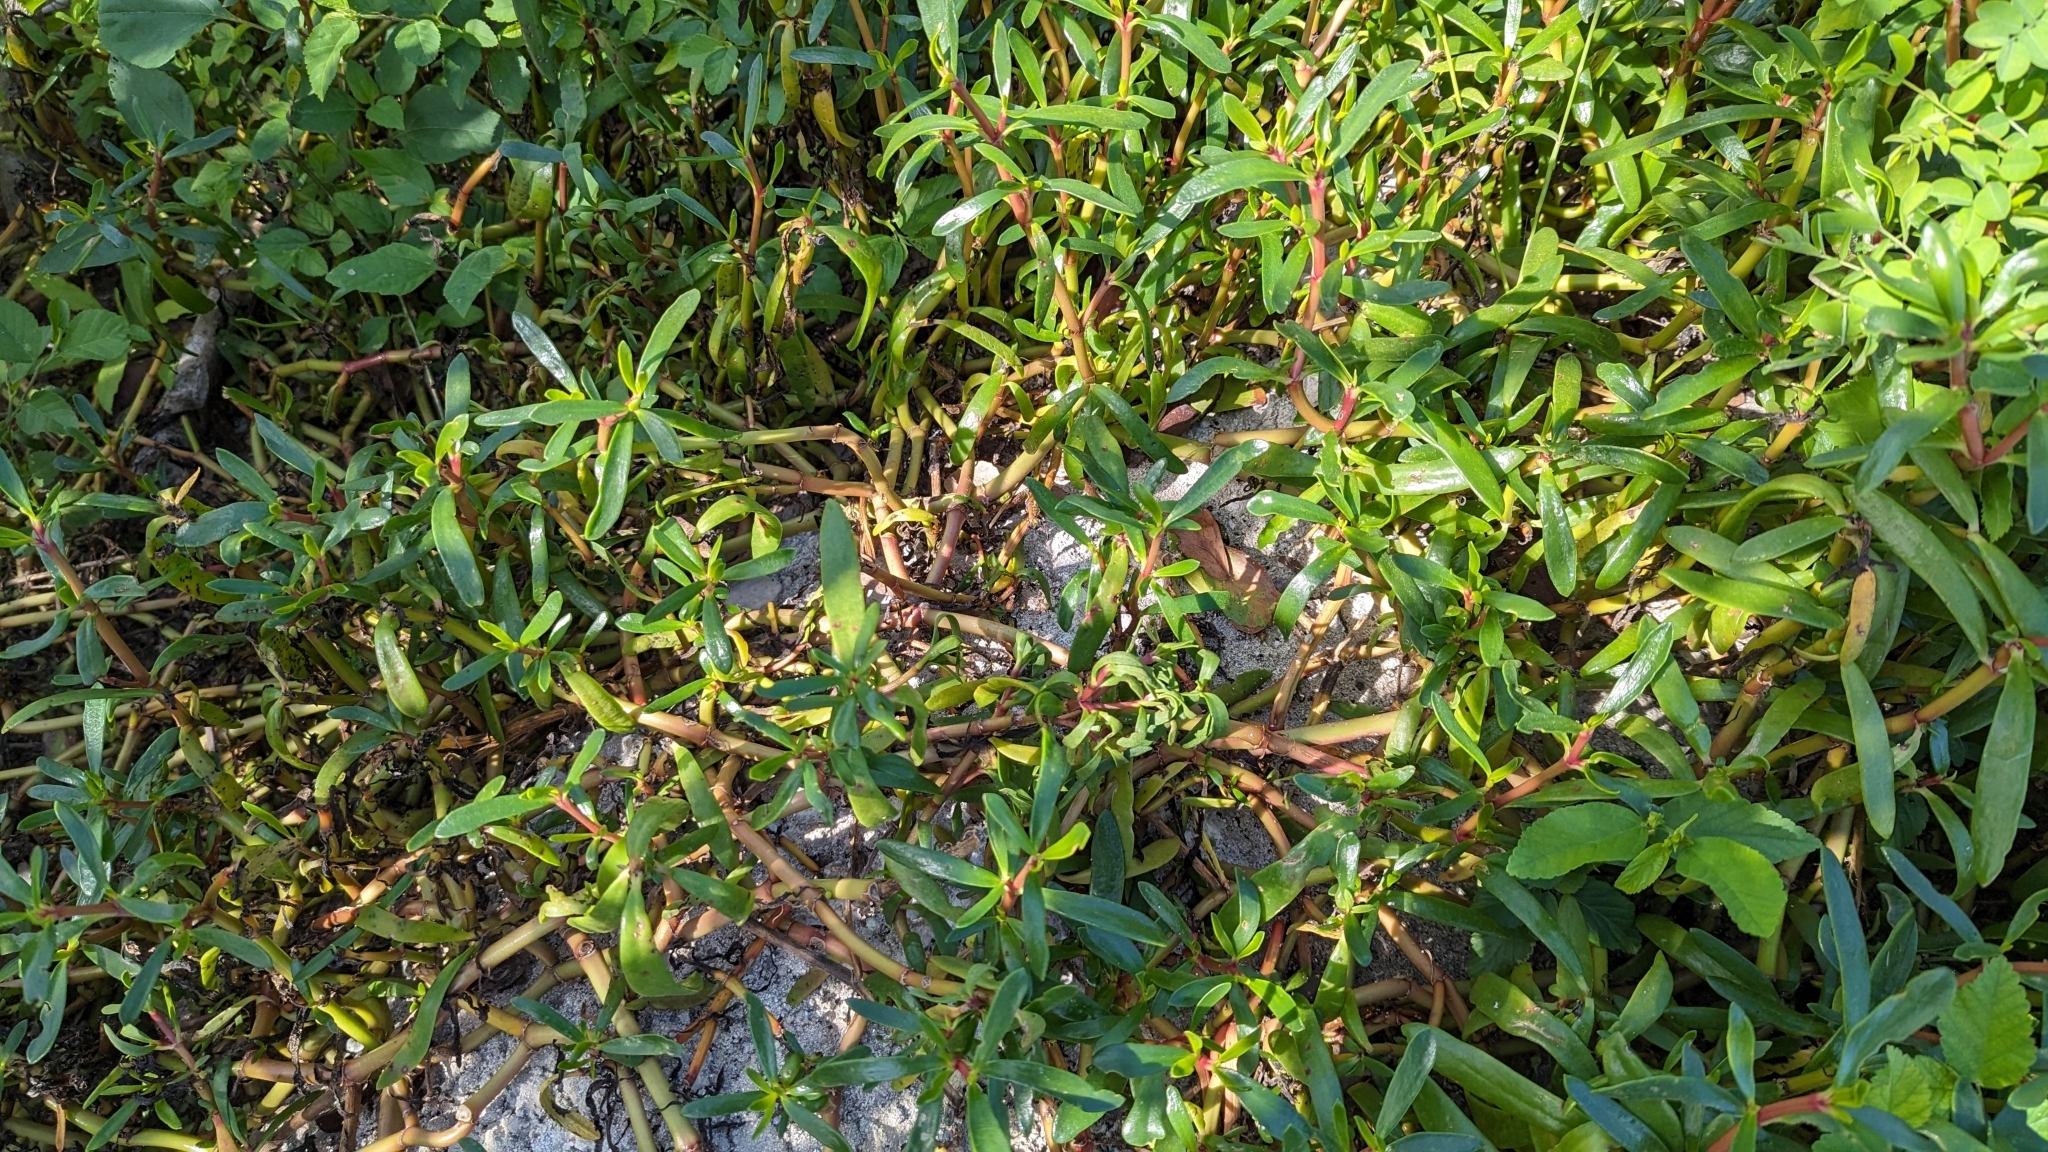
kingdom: Plantae
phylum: Tracheophyta
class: Magnoliopsida
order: Caryophyllales
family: Aizoaceae
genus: Sesuvium
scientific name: Sesuvium portulacastrum
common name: Sea-purslane
